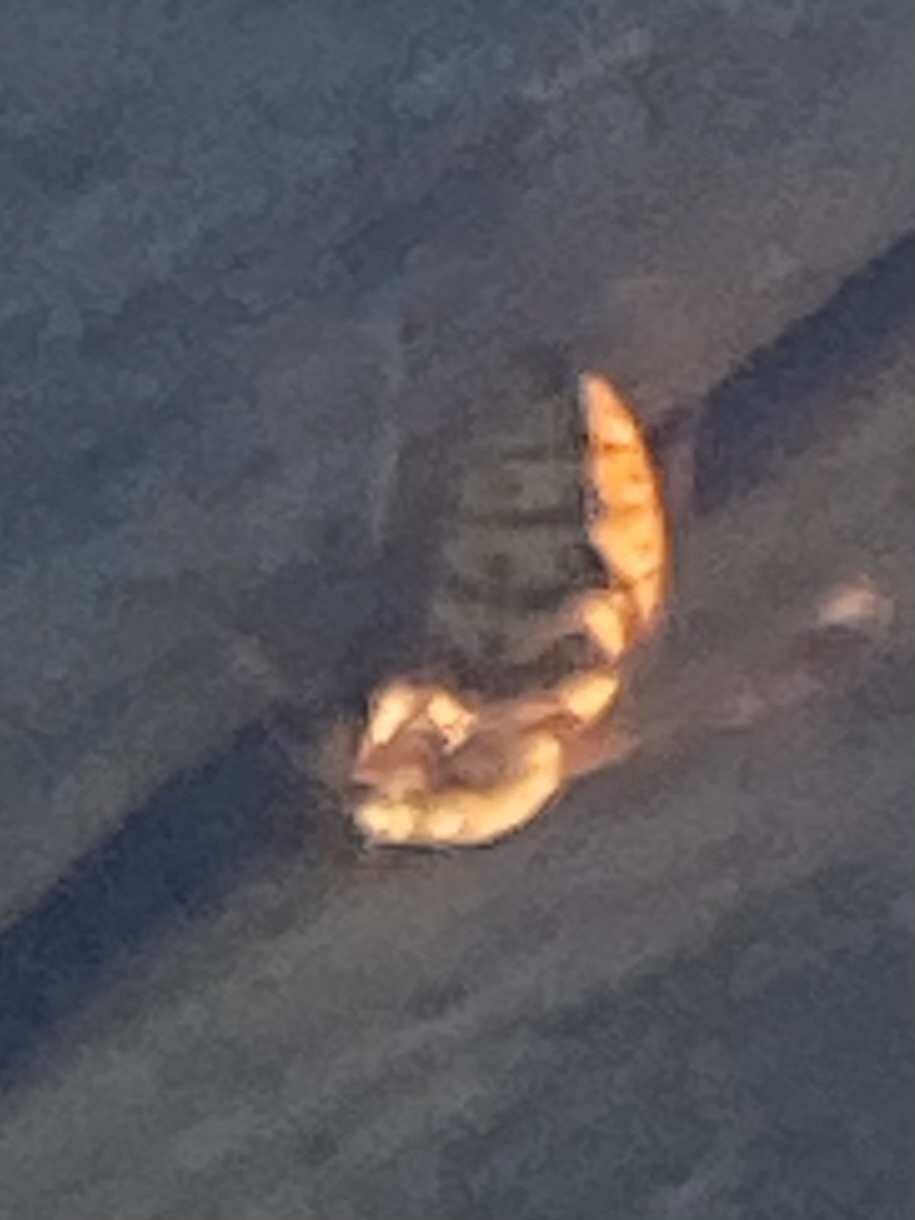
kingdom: Animalia
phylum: Arthropoda
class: Insecta
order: Hymenoptera
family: Vespidae
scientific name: Vespidae
